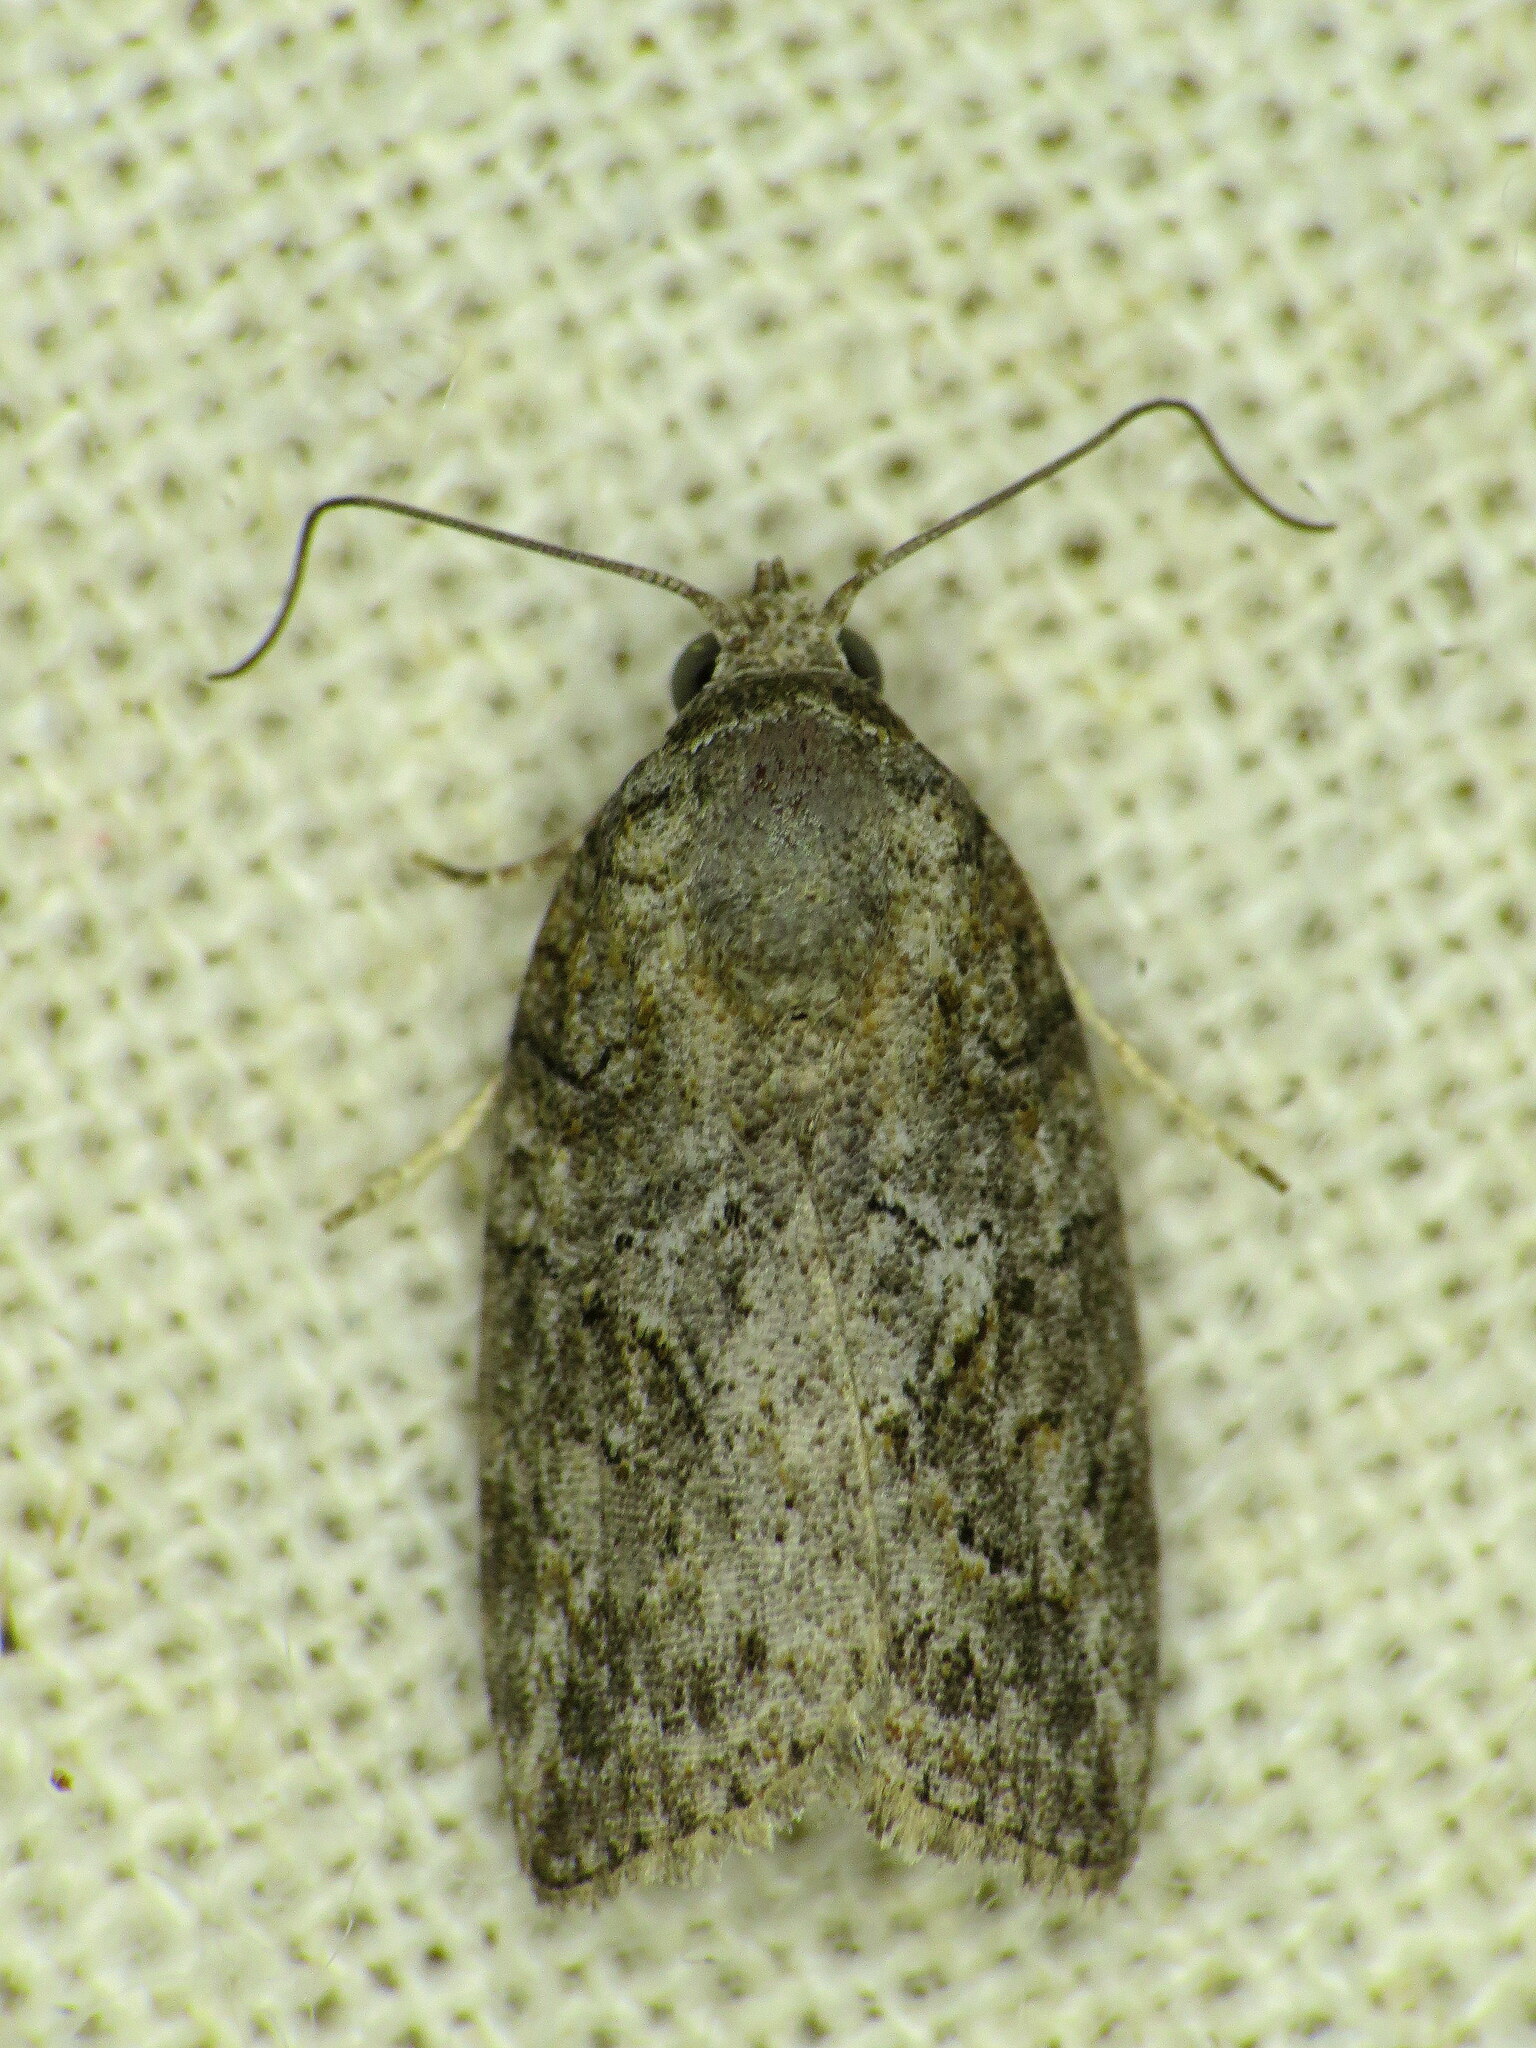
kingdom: Animalia
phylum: Arthropoda
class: Insecta
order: Lepidoptera
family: Nolidae
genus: Garella
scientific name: Garella nilotica
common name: Black-olive caterpillar moth
